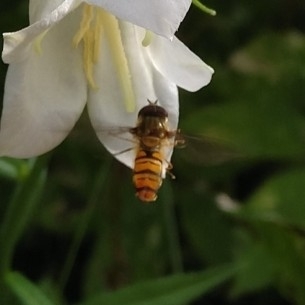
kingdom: Animalia
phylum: Arthropoda
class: Insecta
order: Diptera
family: Syrphidae
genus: Episyrphus
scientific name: Episyrphus balteatus
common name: Marmalade hoverfly
